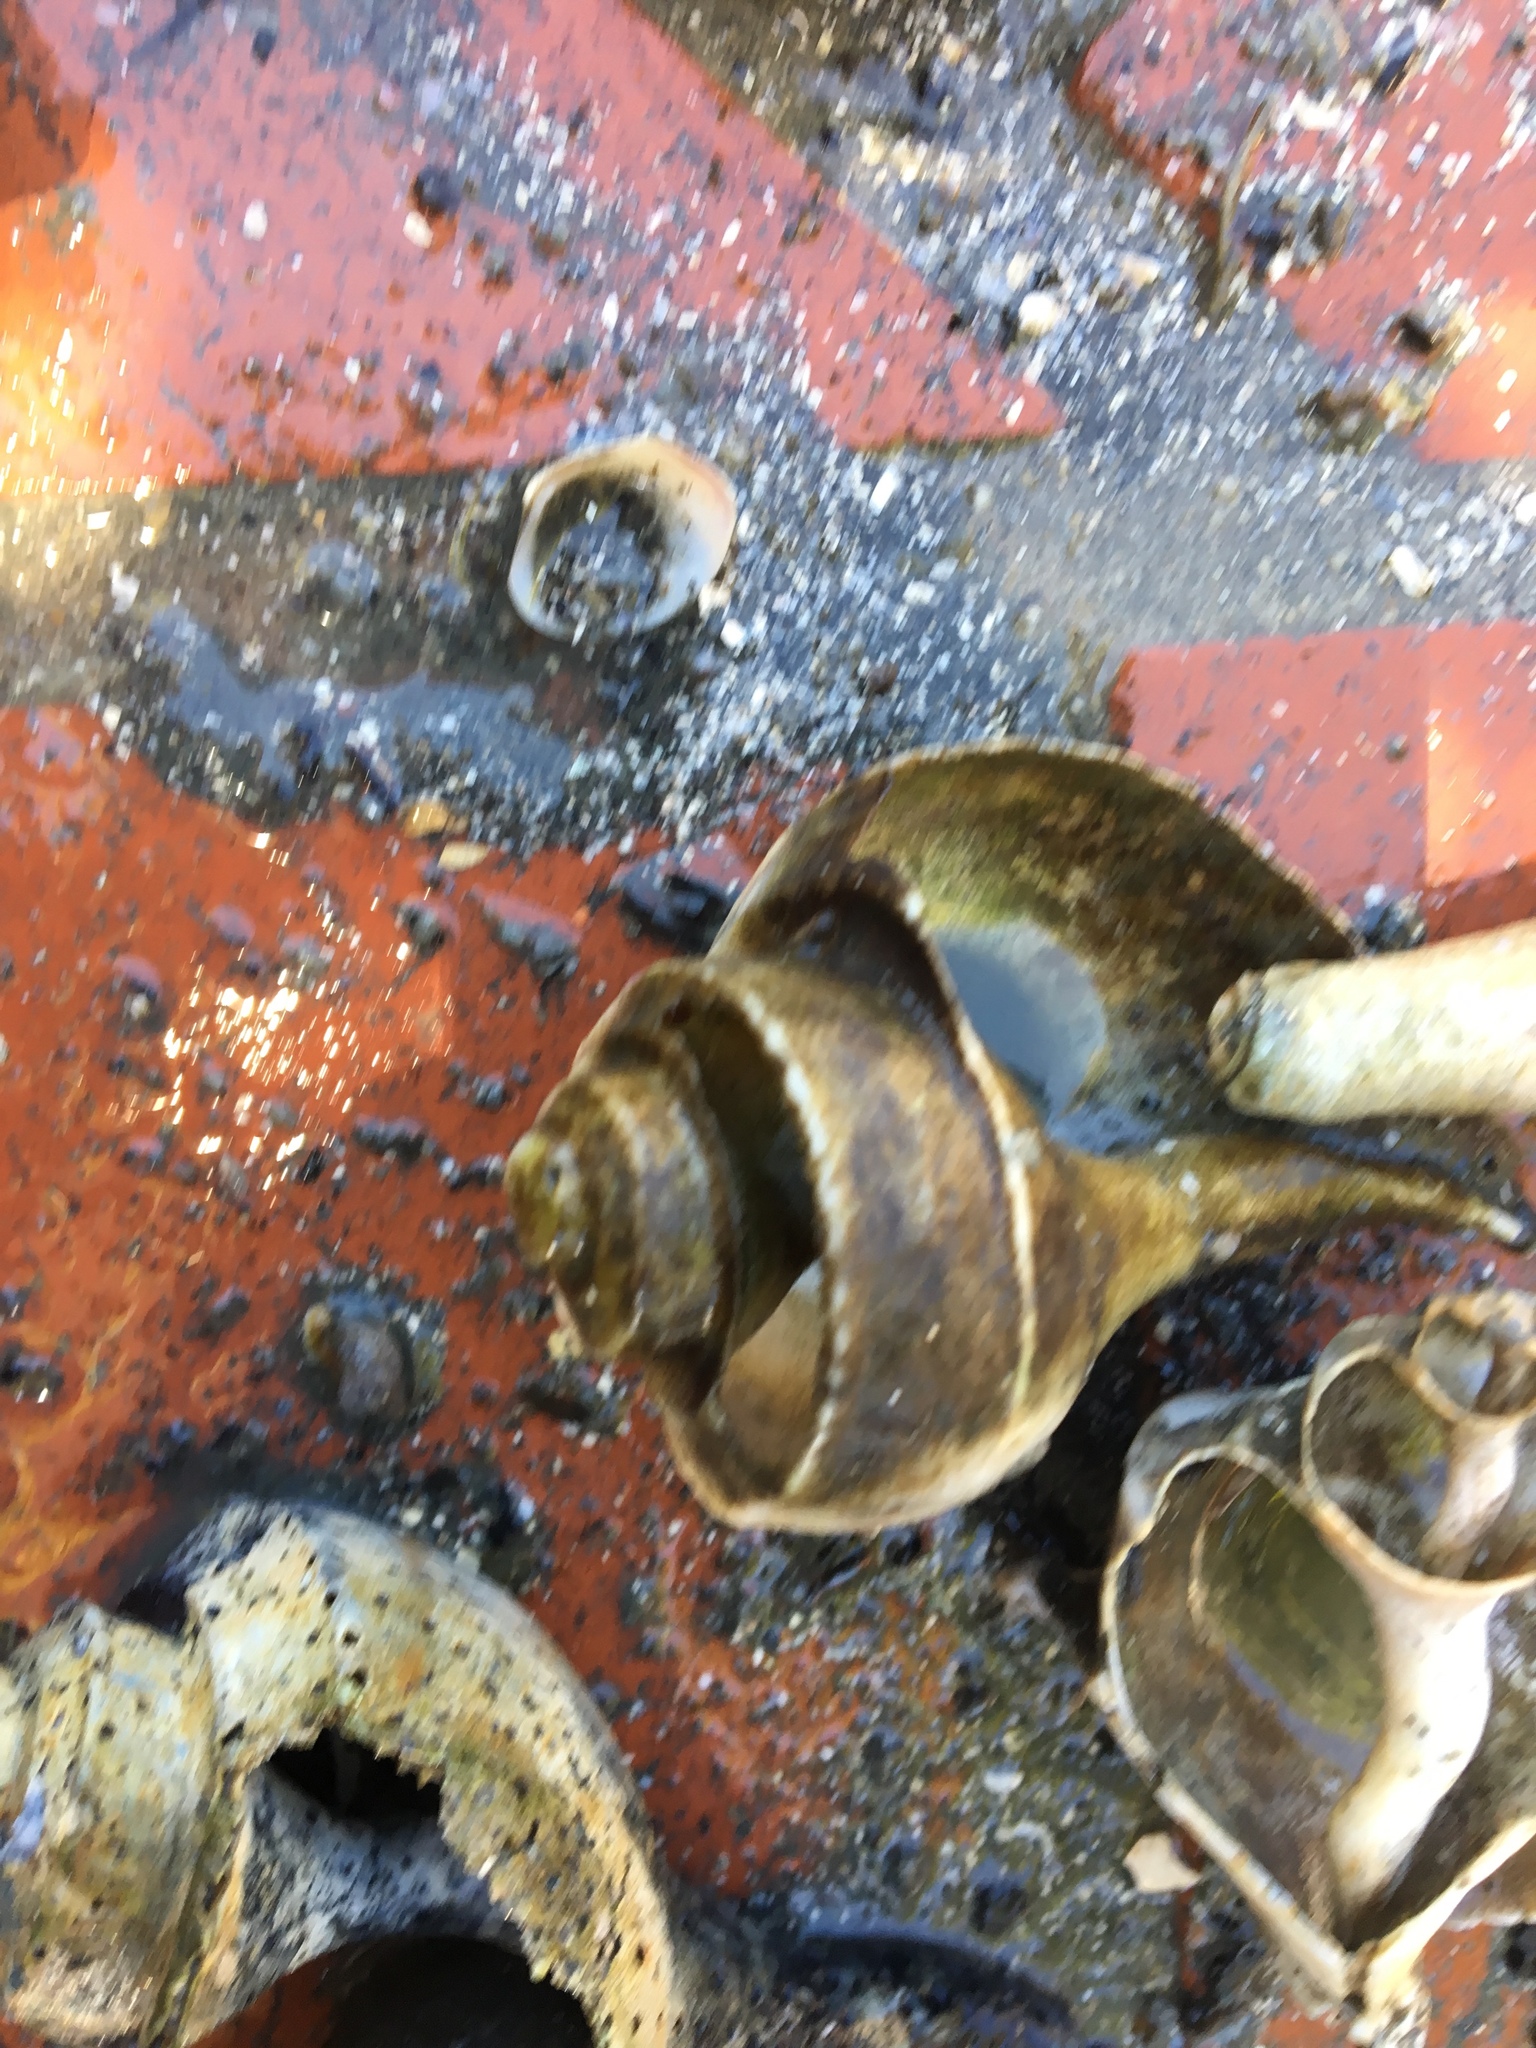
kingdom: Animalia
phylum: Mollusca
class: Gastropoda
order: Neogastropoda
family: Busyconidae
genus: Busycotypus
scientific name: Busycotypus canaliculatus
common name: Channeled whelk
